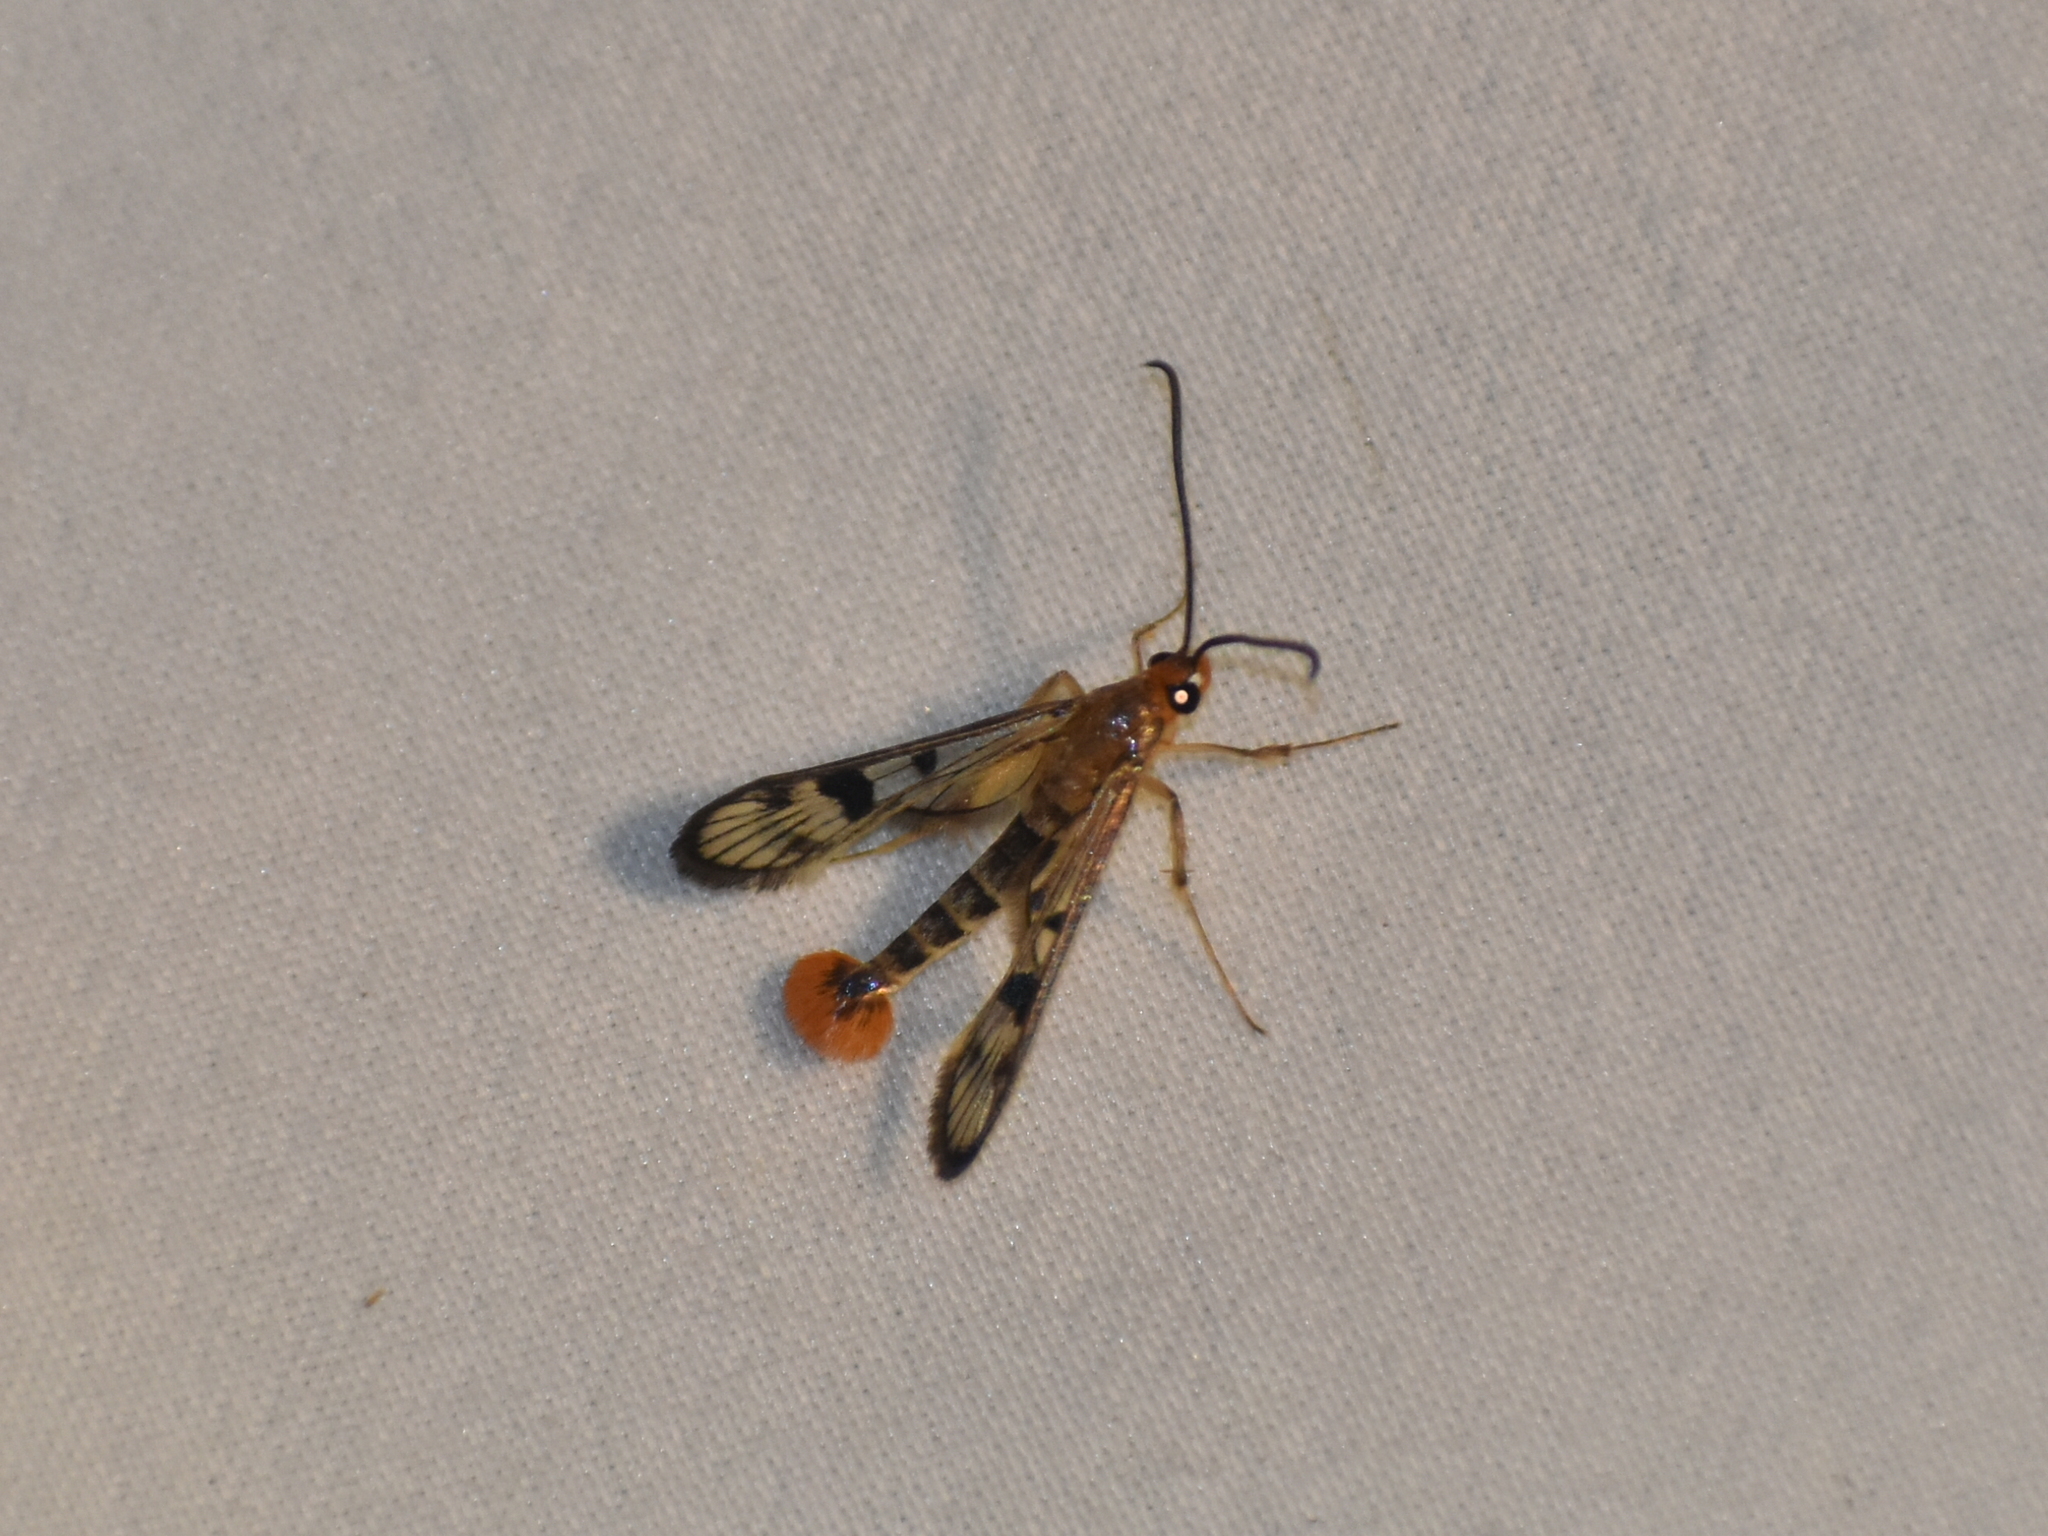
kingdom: Animalia
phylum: Arthropoda
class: Insecta
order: Lepidoptera
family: Sesiidae
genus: Synanthedon
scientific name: Synanthedon acerni
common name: Maple callus borer moth
